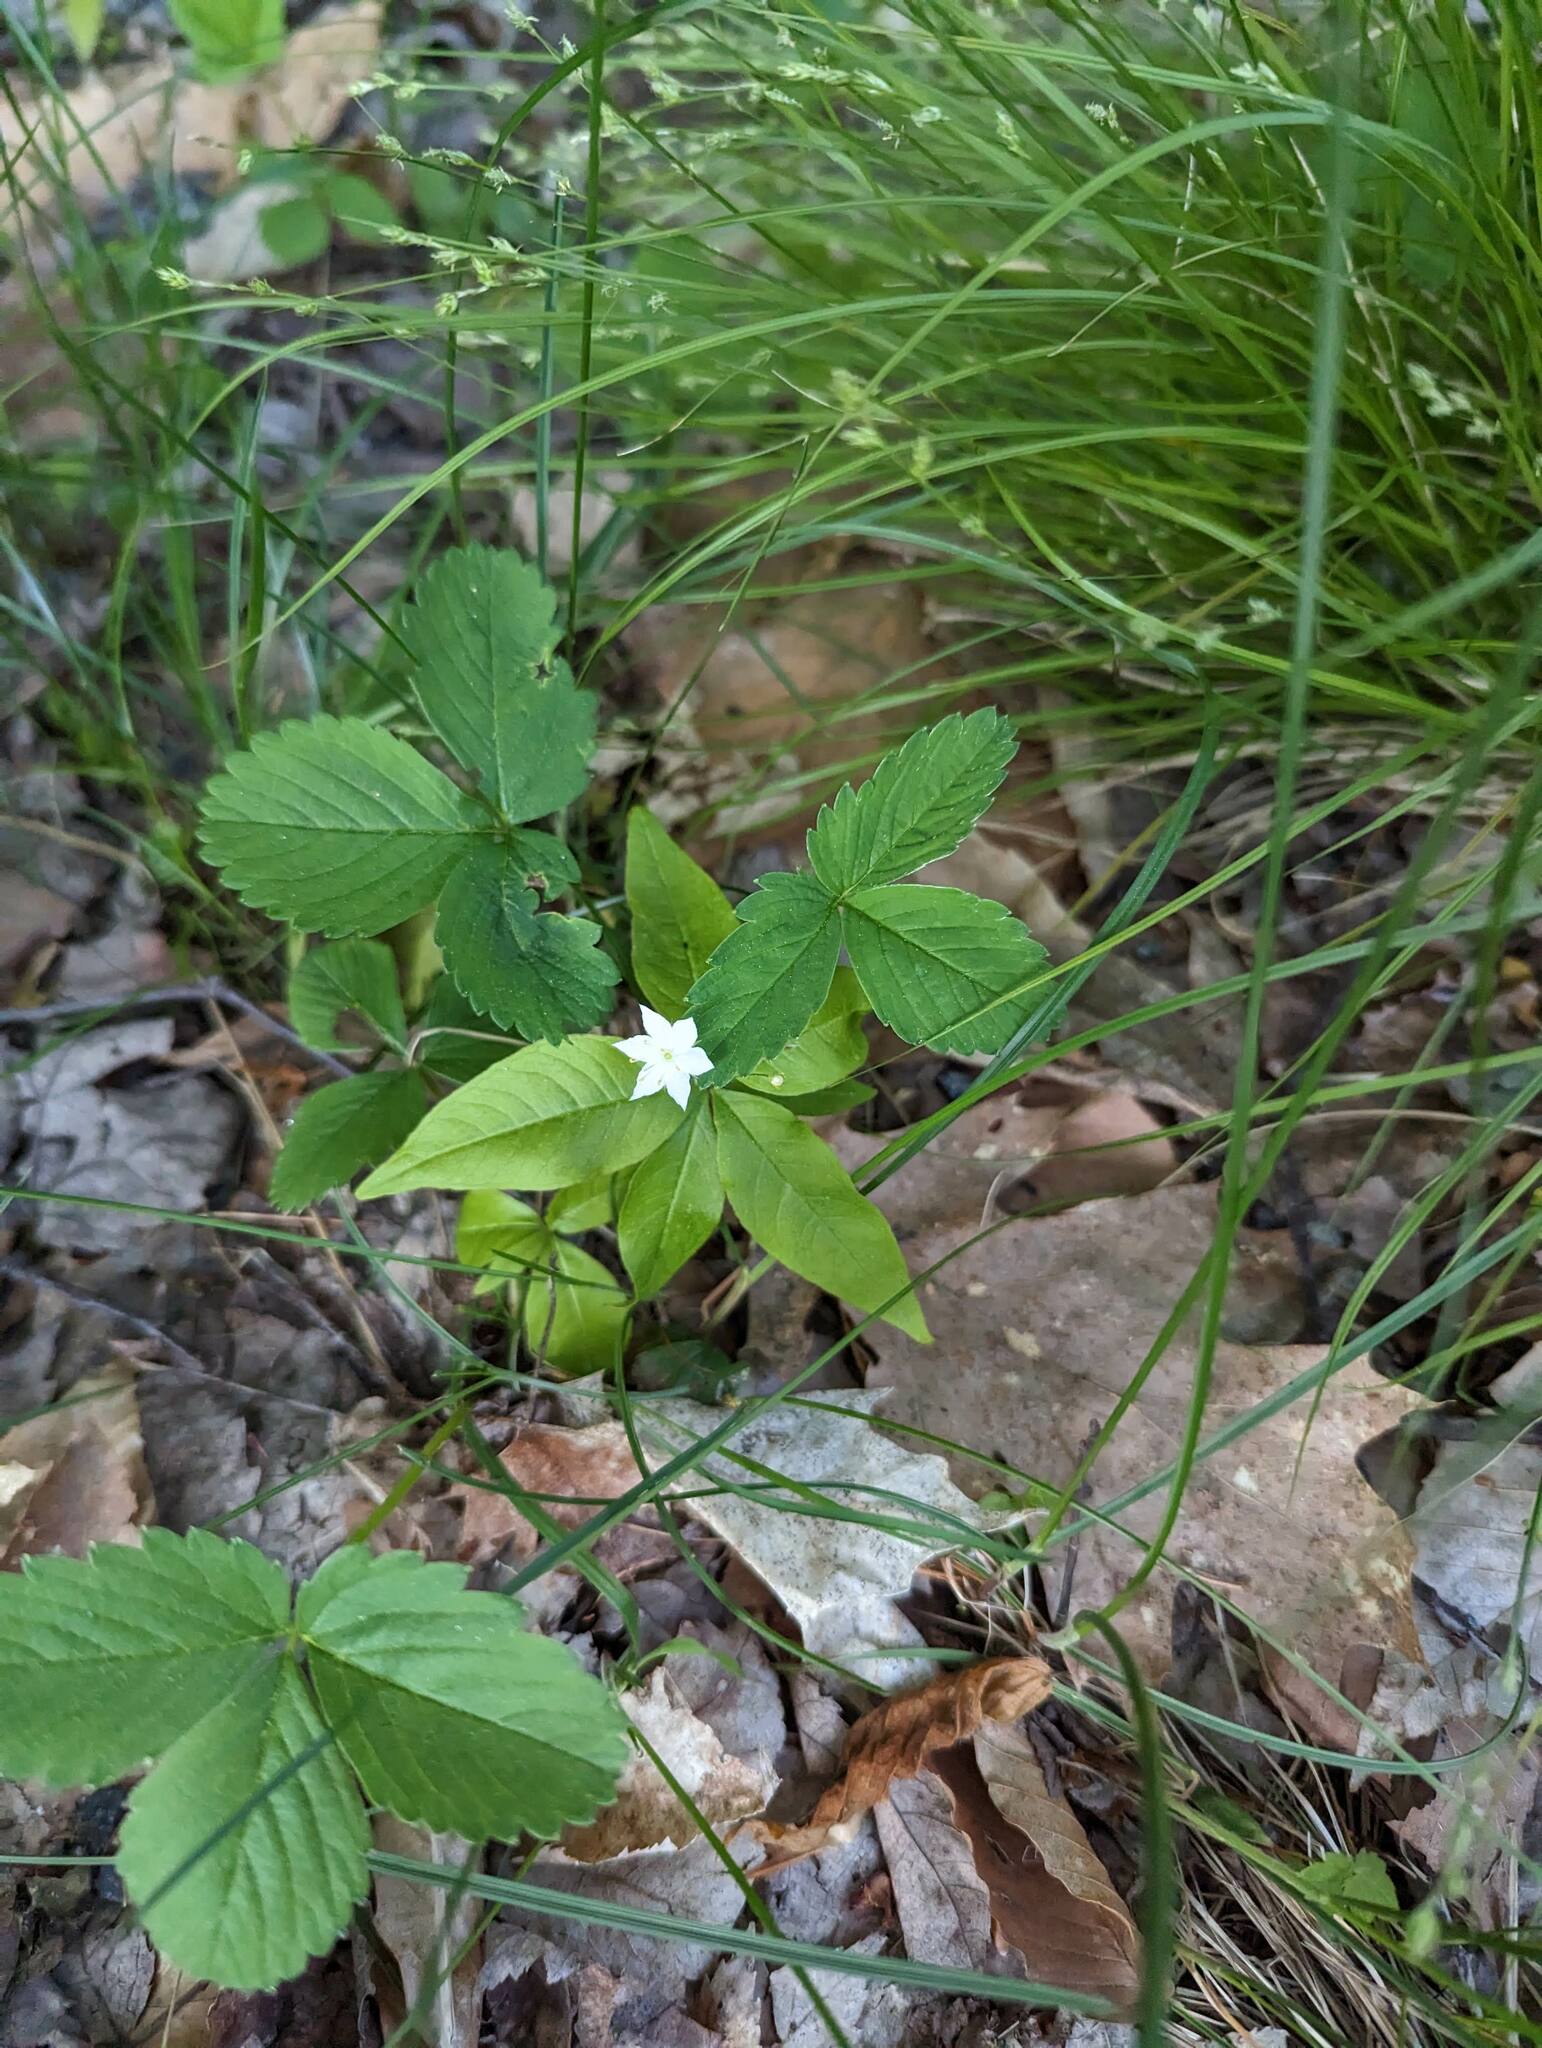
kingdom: Plantae
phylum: Tracheophyta
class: Magnoliopsida
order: Ericales
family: Primulaceae
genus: Lysimachia
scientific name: Lysimachia borealis
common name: American starflower
